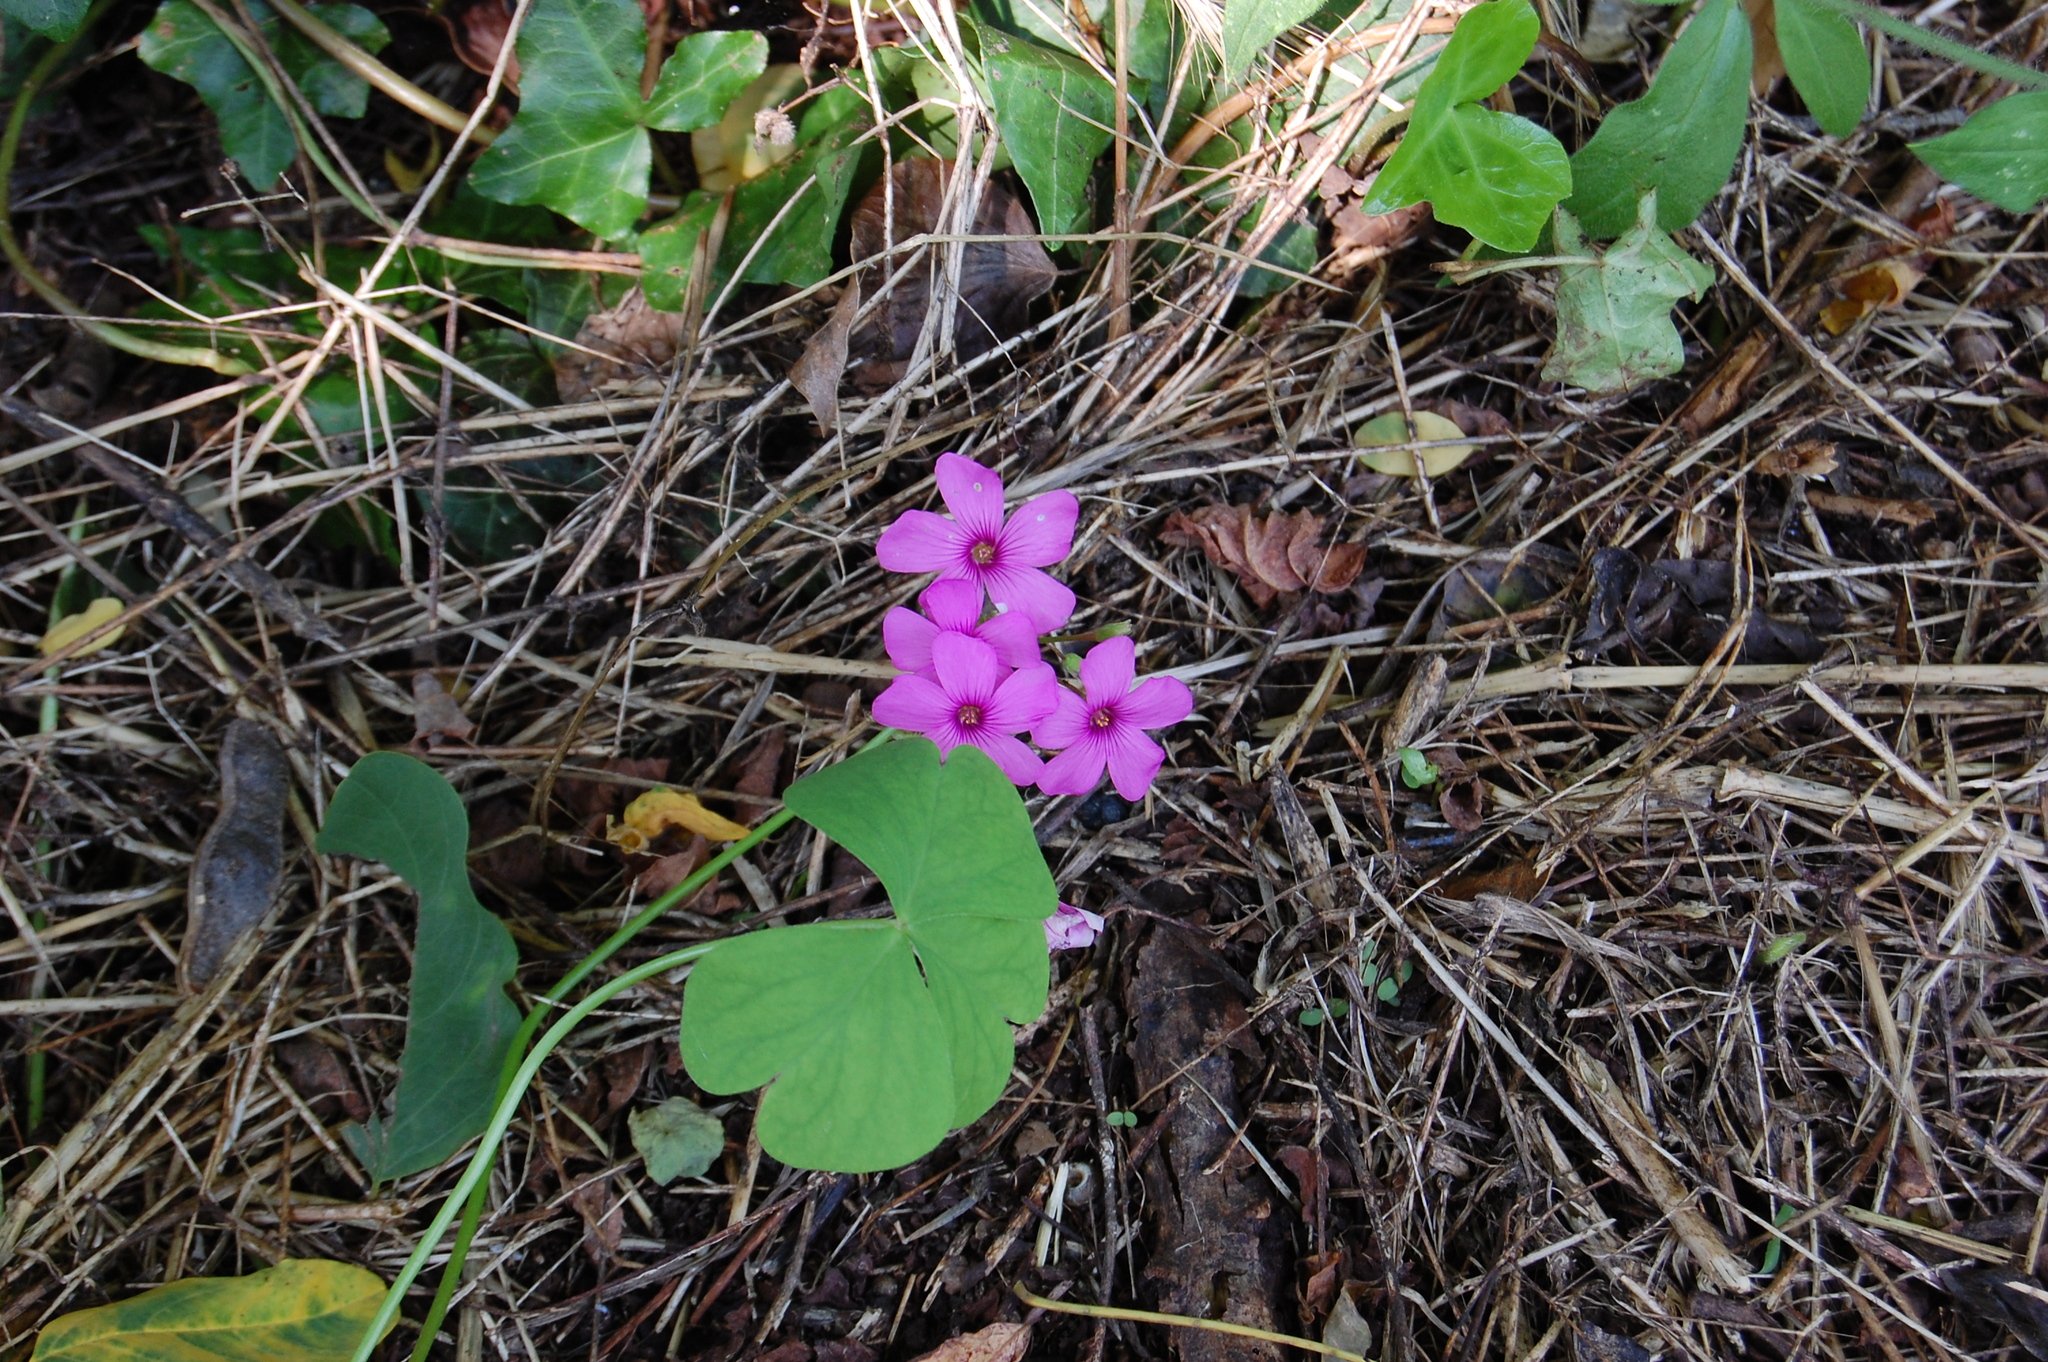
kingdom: Plantae
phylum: Tracheophyta
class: Magnoliopsida
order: Oxalidales
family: Oxalidaceae
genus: Oxalis
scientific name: Oxalis articulata
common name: Pink-sorrel
